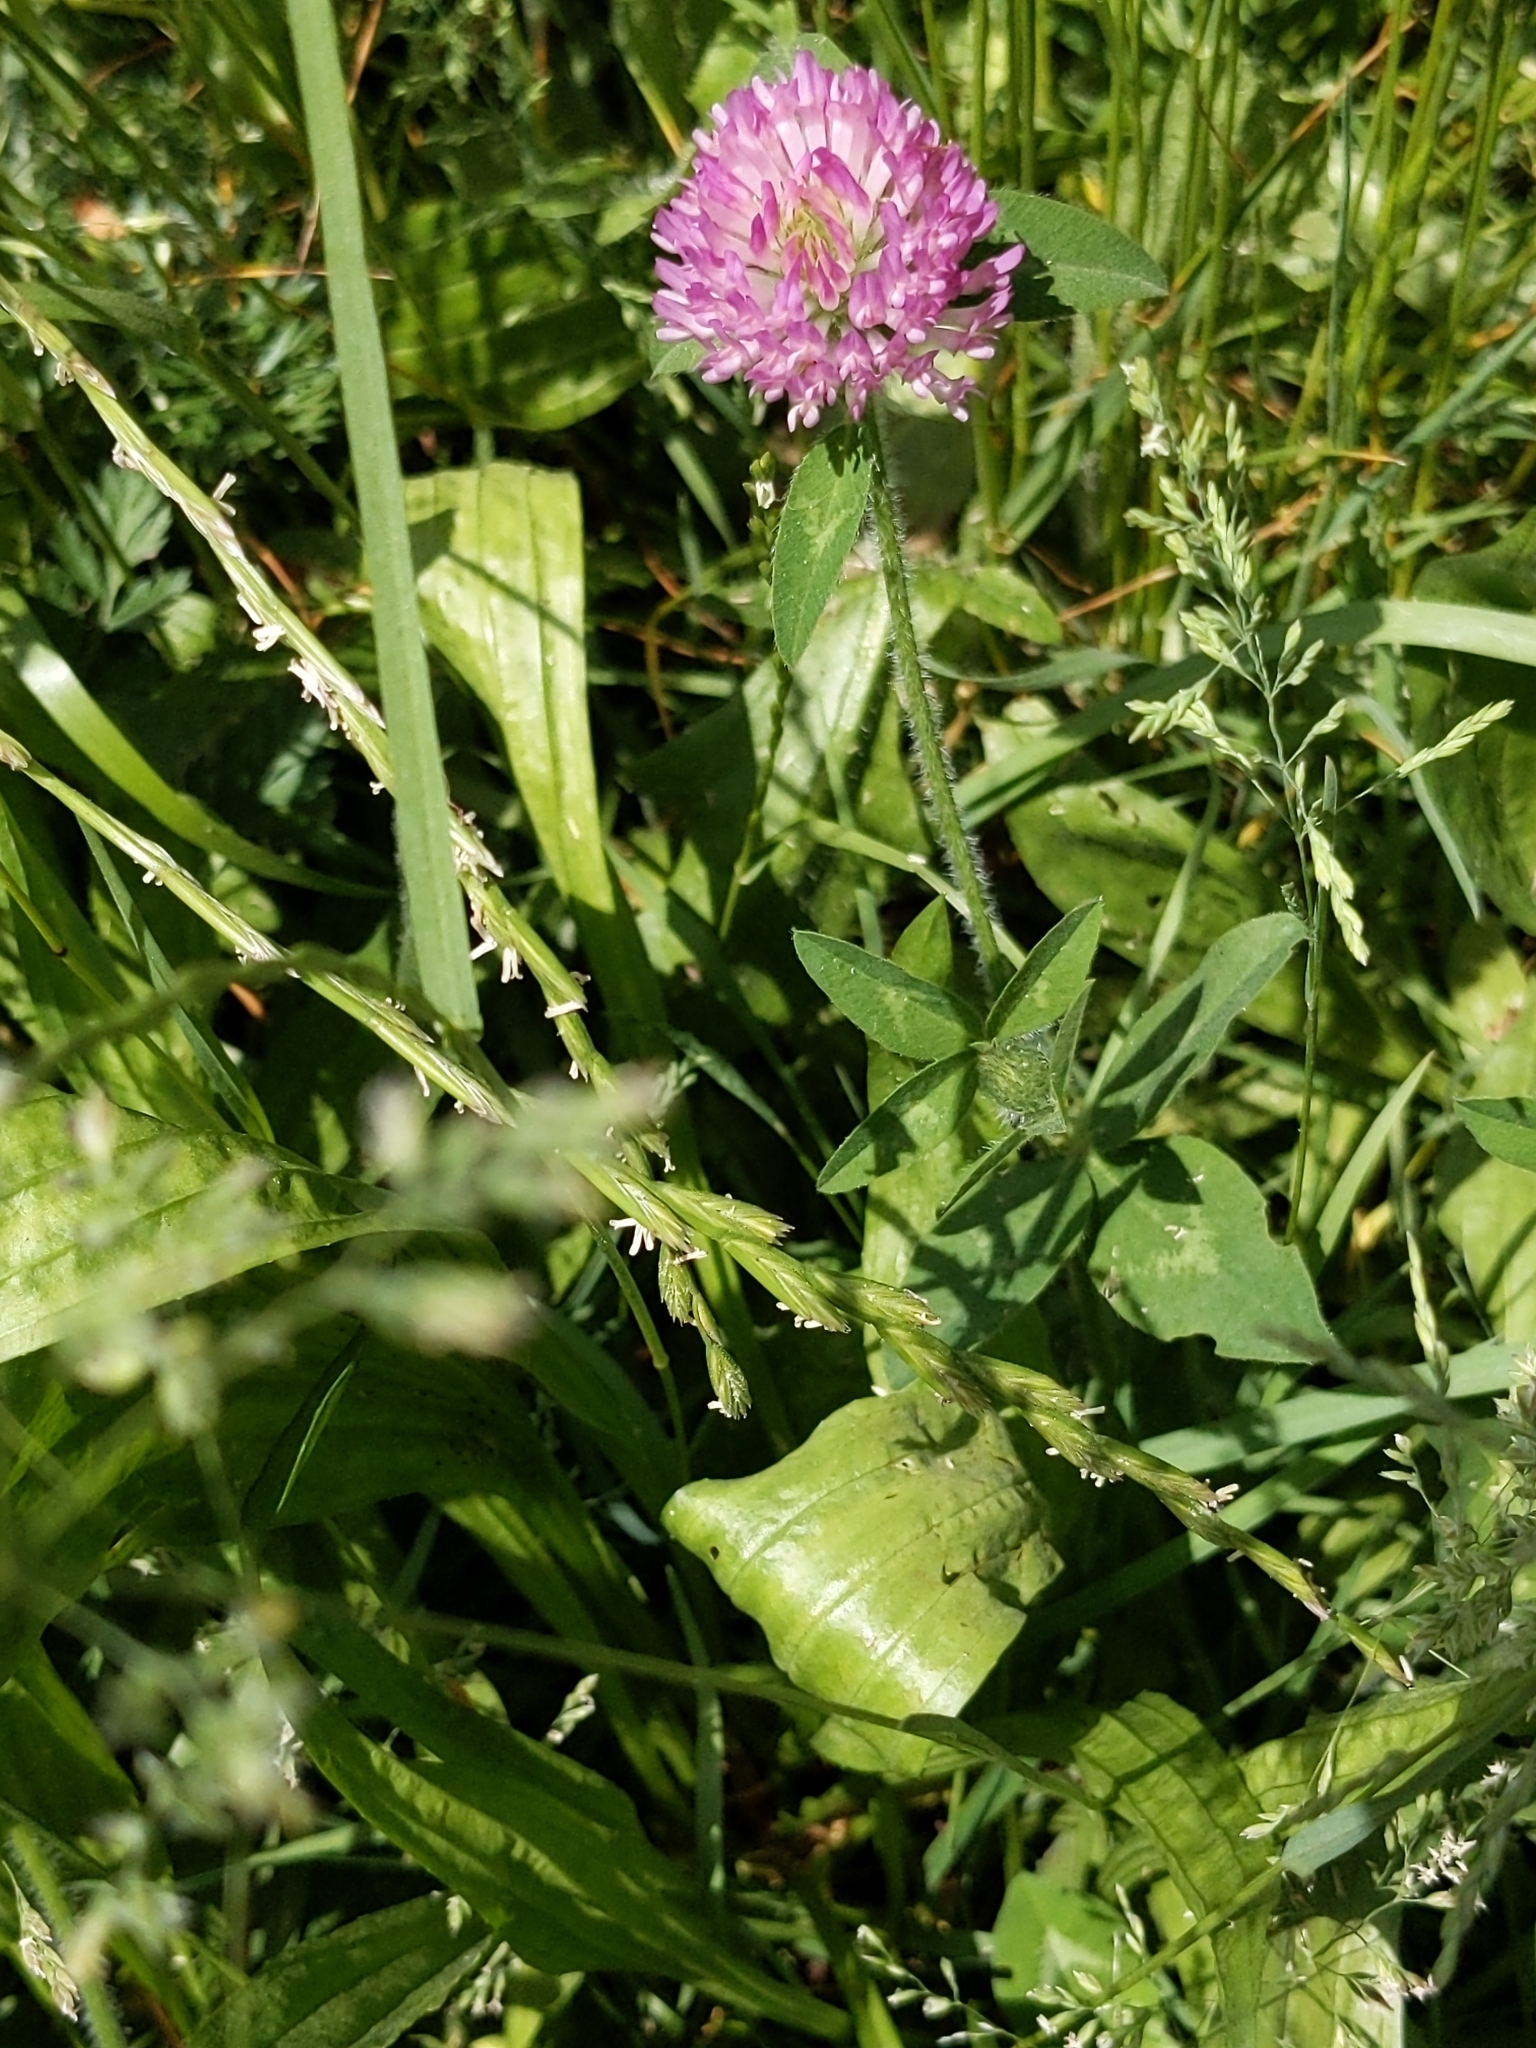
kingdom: Plantae
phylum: Tracheophyta
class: Magnoliopsida
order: Fabales
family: Fabaceae
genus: Trifolium
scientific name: Trifolium pratense
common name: Red clover
